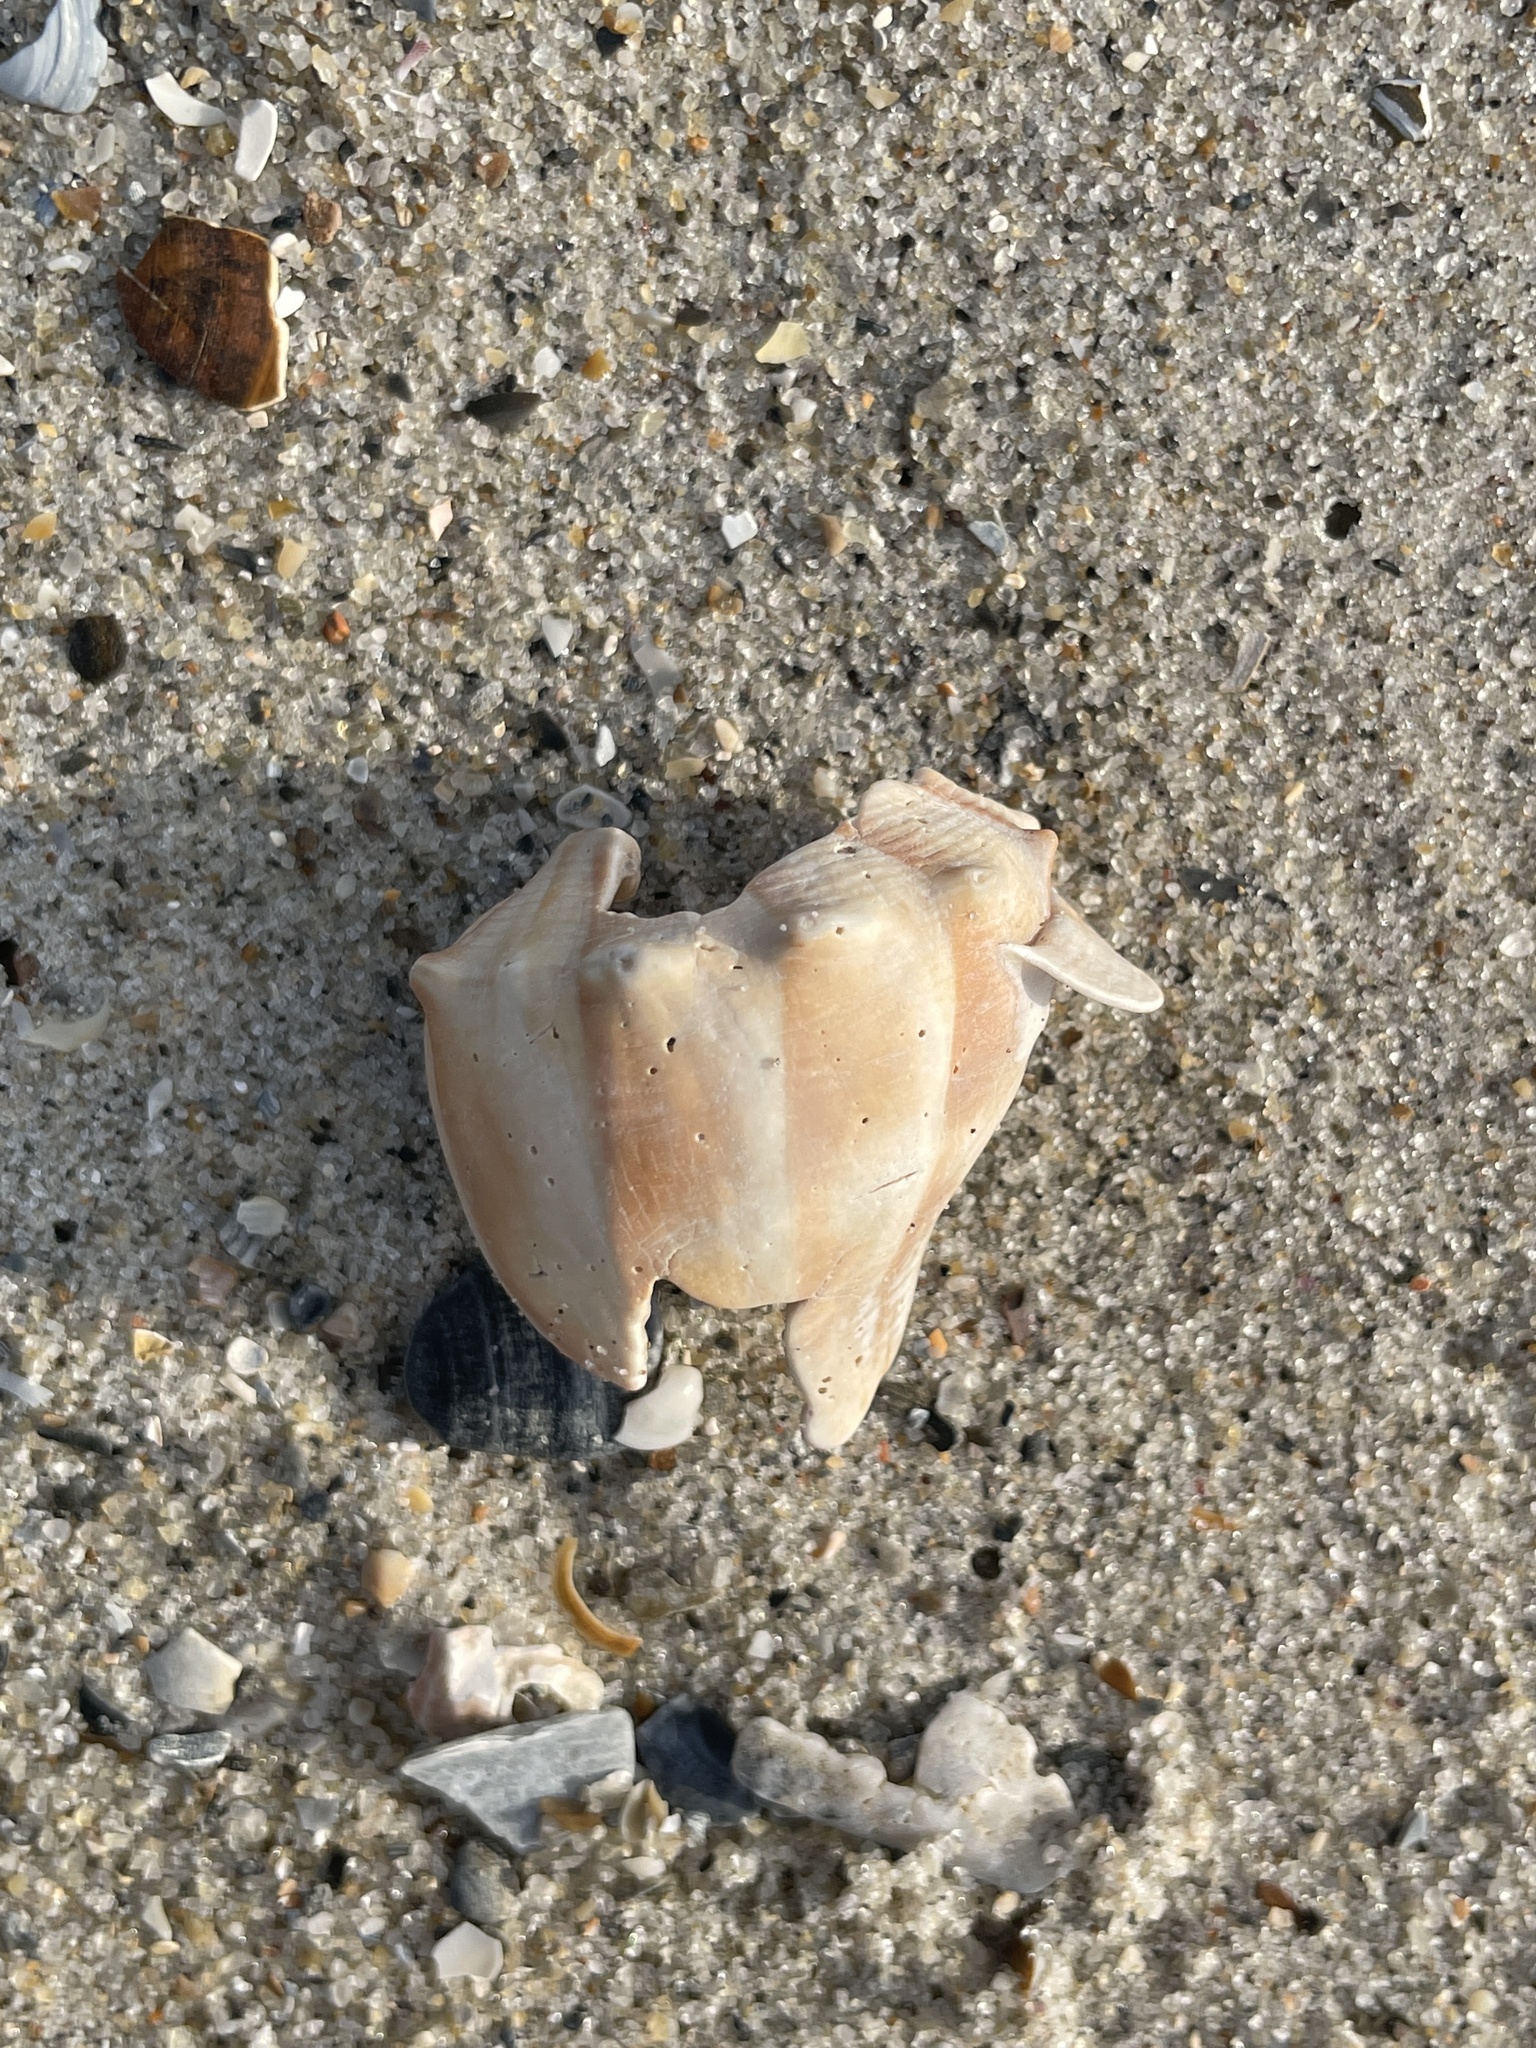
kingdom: Animalia
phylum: Mollusca
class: Gastropoda
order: Neogastropoda
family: Busyconidae
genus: Busycon
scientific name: Busycon carica
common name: Knobbed whelk
